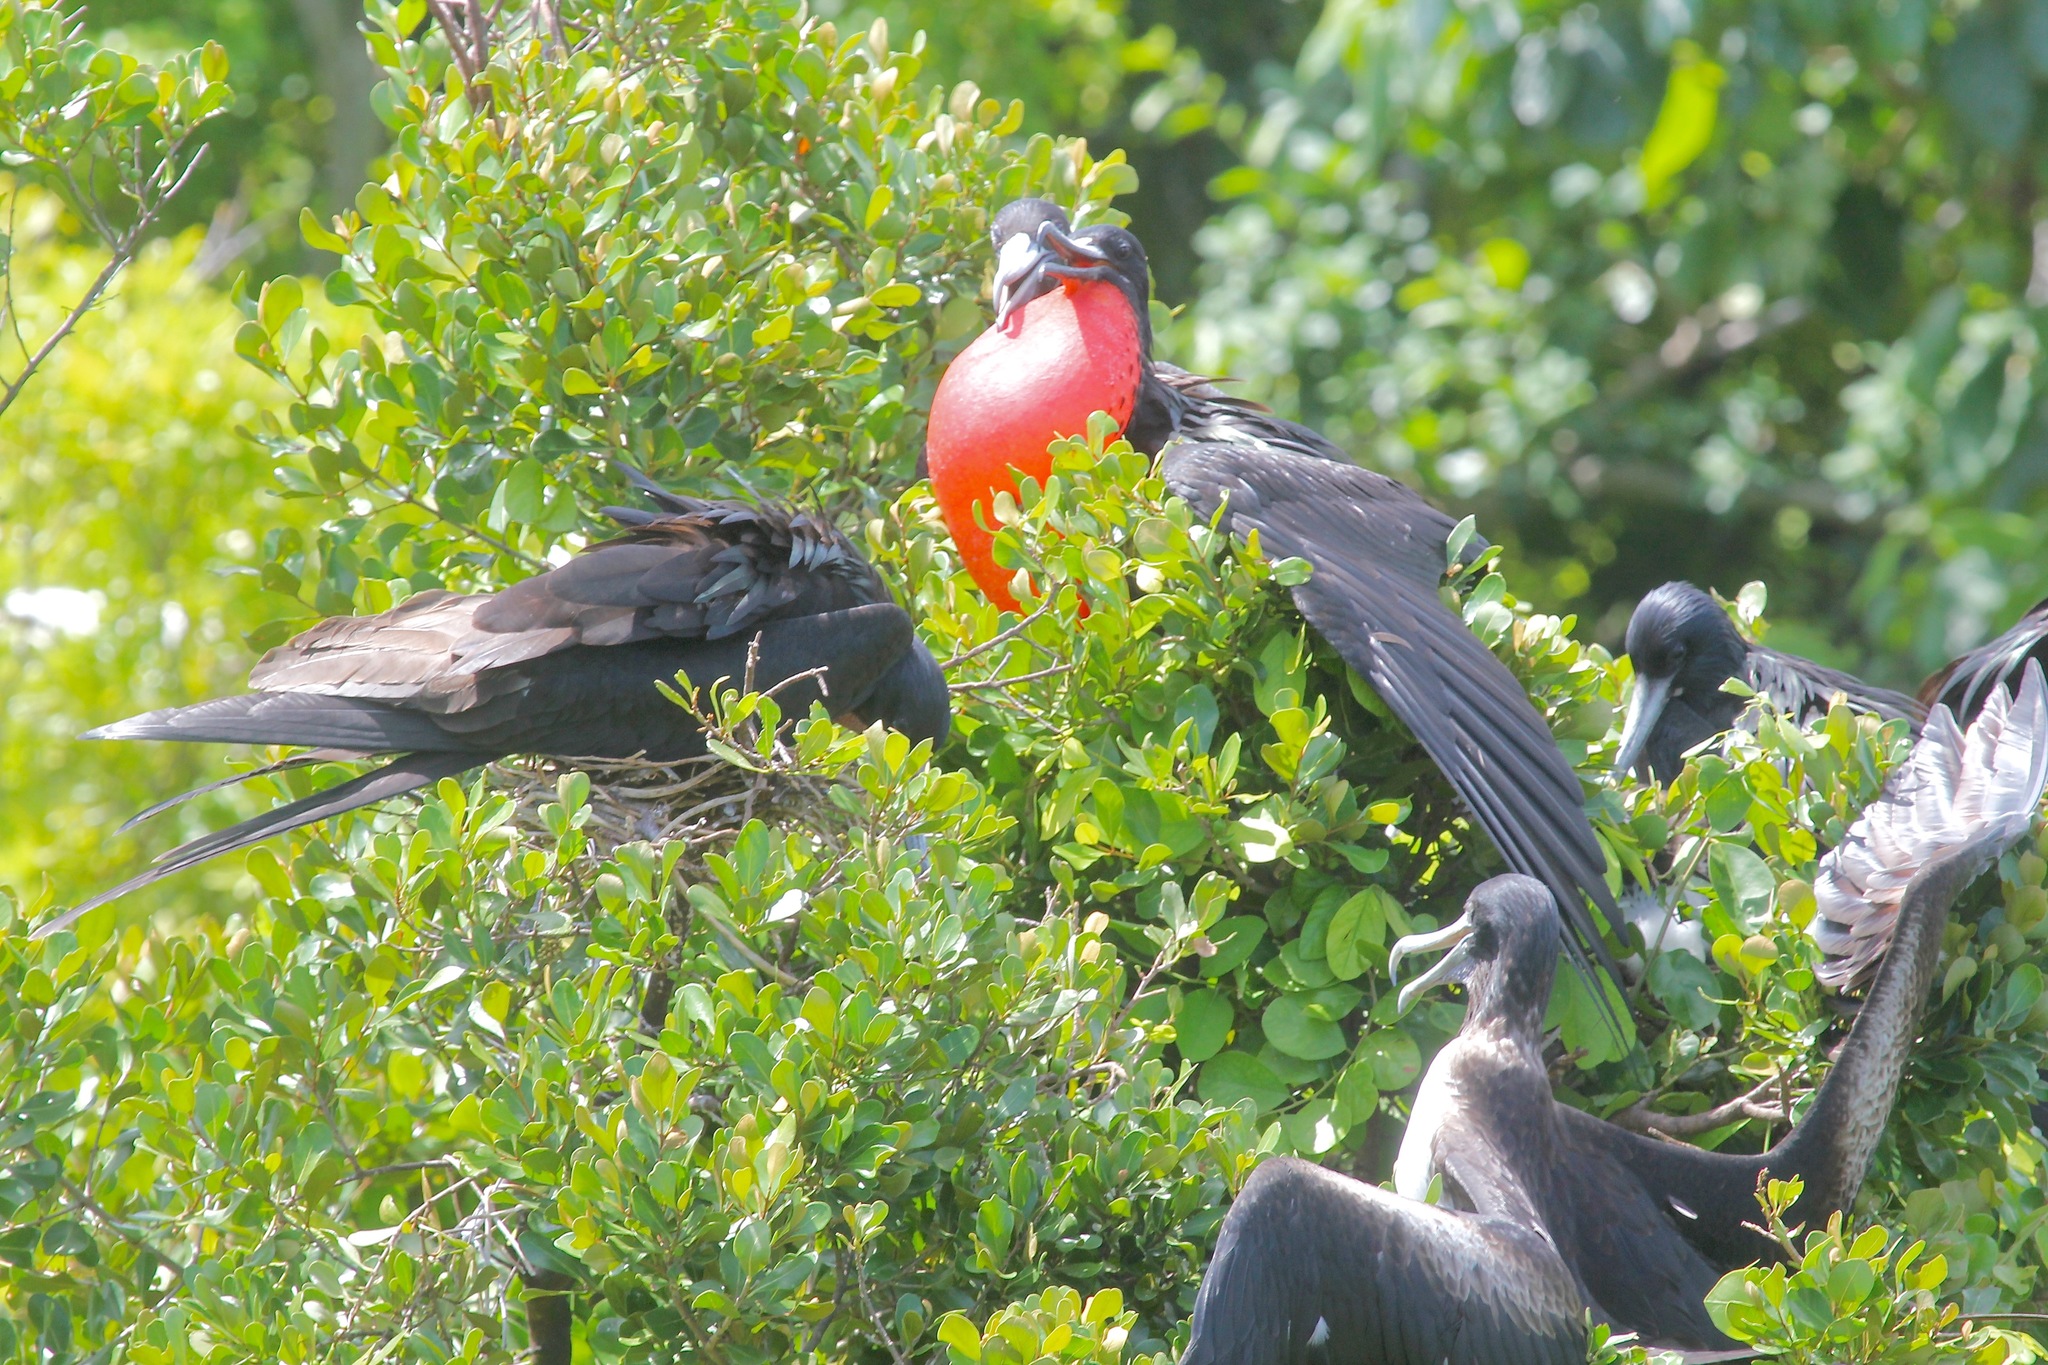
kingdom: Animalia
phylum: Chordata
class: Aves
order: Suliformes
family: Fregatidae
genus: Fregata
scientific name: Fregata magnificens
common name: Magnificent frigatebird
